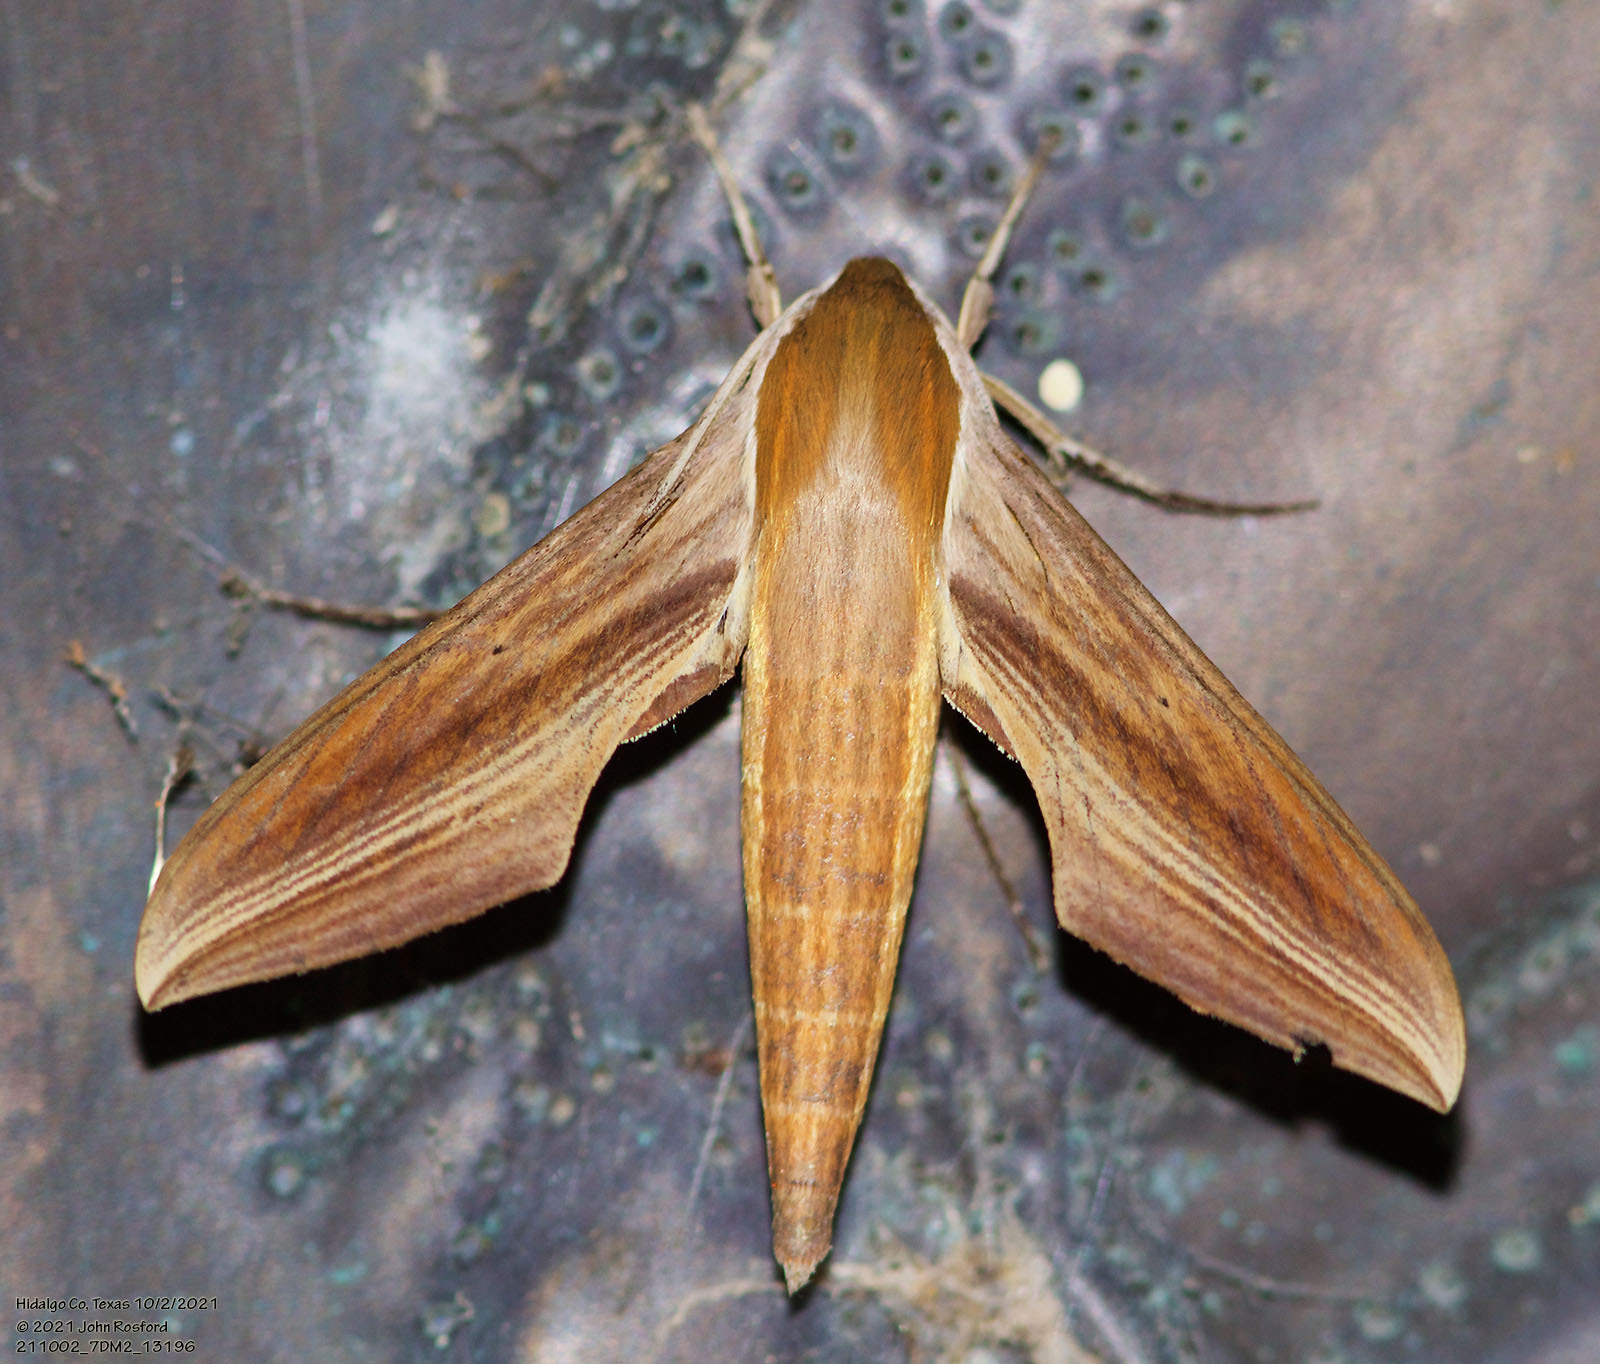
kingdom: Animalia
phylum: Arthropoda
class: Insecta
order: Lepidoptera
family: Sphingidae
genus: Xylophanes
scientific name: Xylophanes tersa
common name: Tersa sphinx
